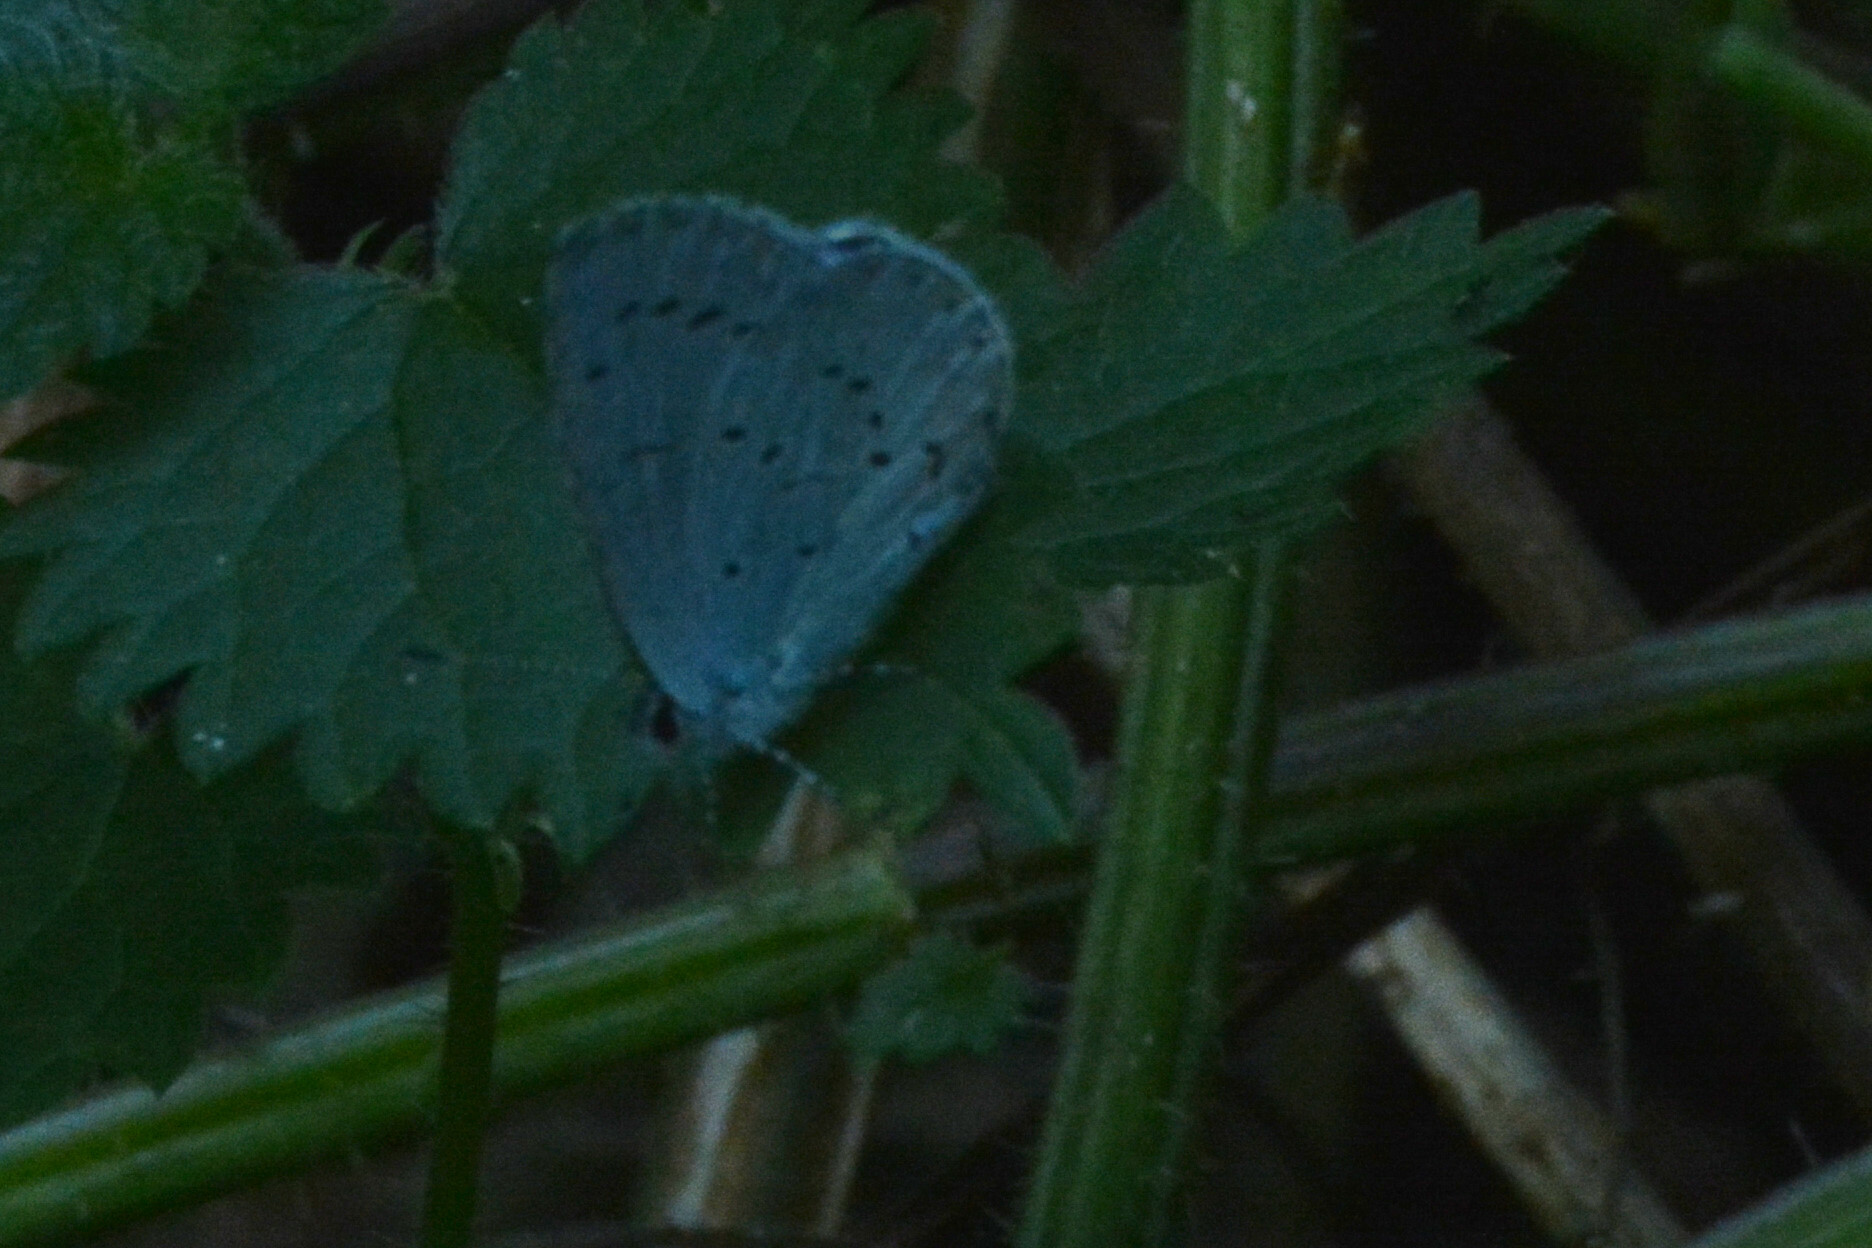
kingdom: Animalia
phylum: Arthropoda
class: Insecta
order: Lepidoptera
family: Lycaenidae
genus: Celastrina
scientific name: Celastrina argiolus
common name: Holly blue
